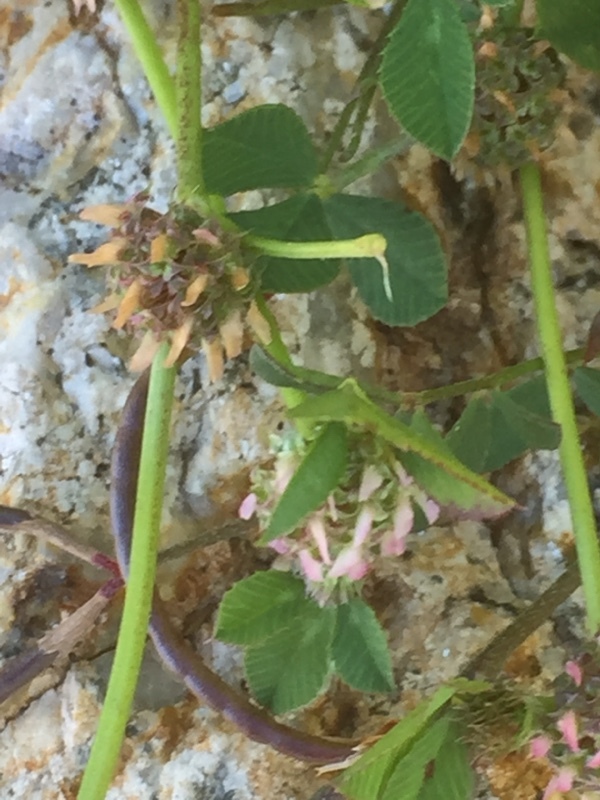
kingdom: Plantae
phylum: Tracheophyta
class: Magnoliopsida
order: Fabales
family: Fabaceae
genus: Trifolium
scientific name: Trifolium glomeratum
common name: Clustered clover
